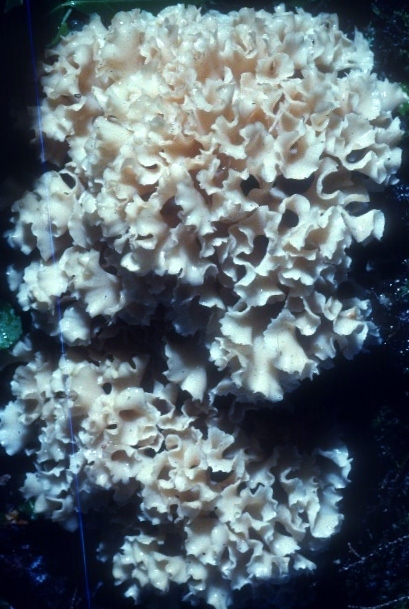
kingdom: Fungi
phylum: Basidiomycota
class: Agaricomycetes
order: Polyporales
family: Sparassidaceae
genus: Sparassis
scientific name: Sparassis americana
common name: American cauliflower mushroom
